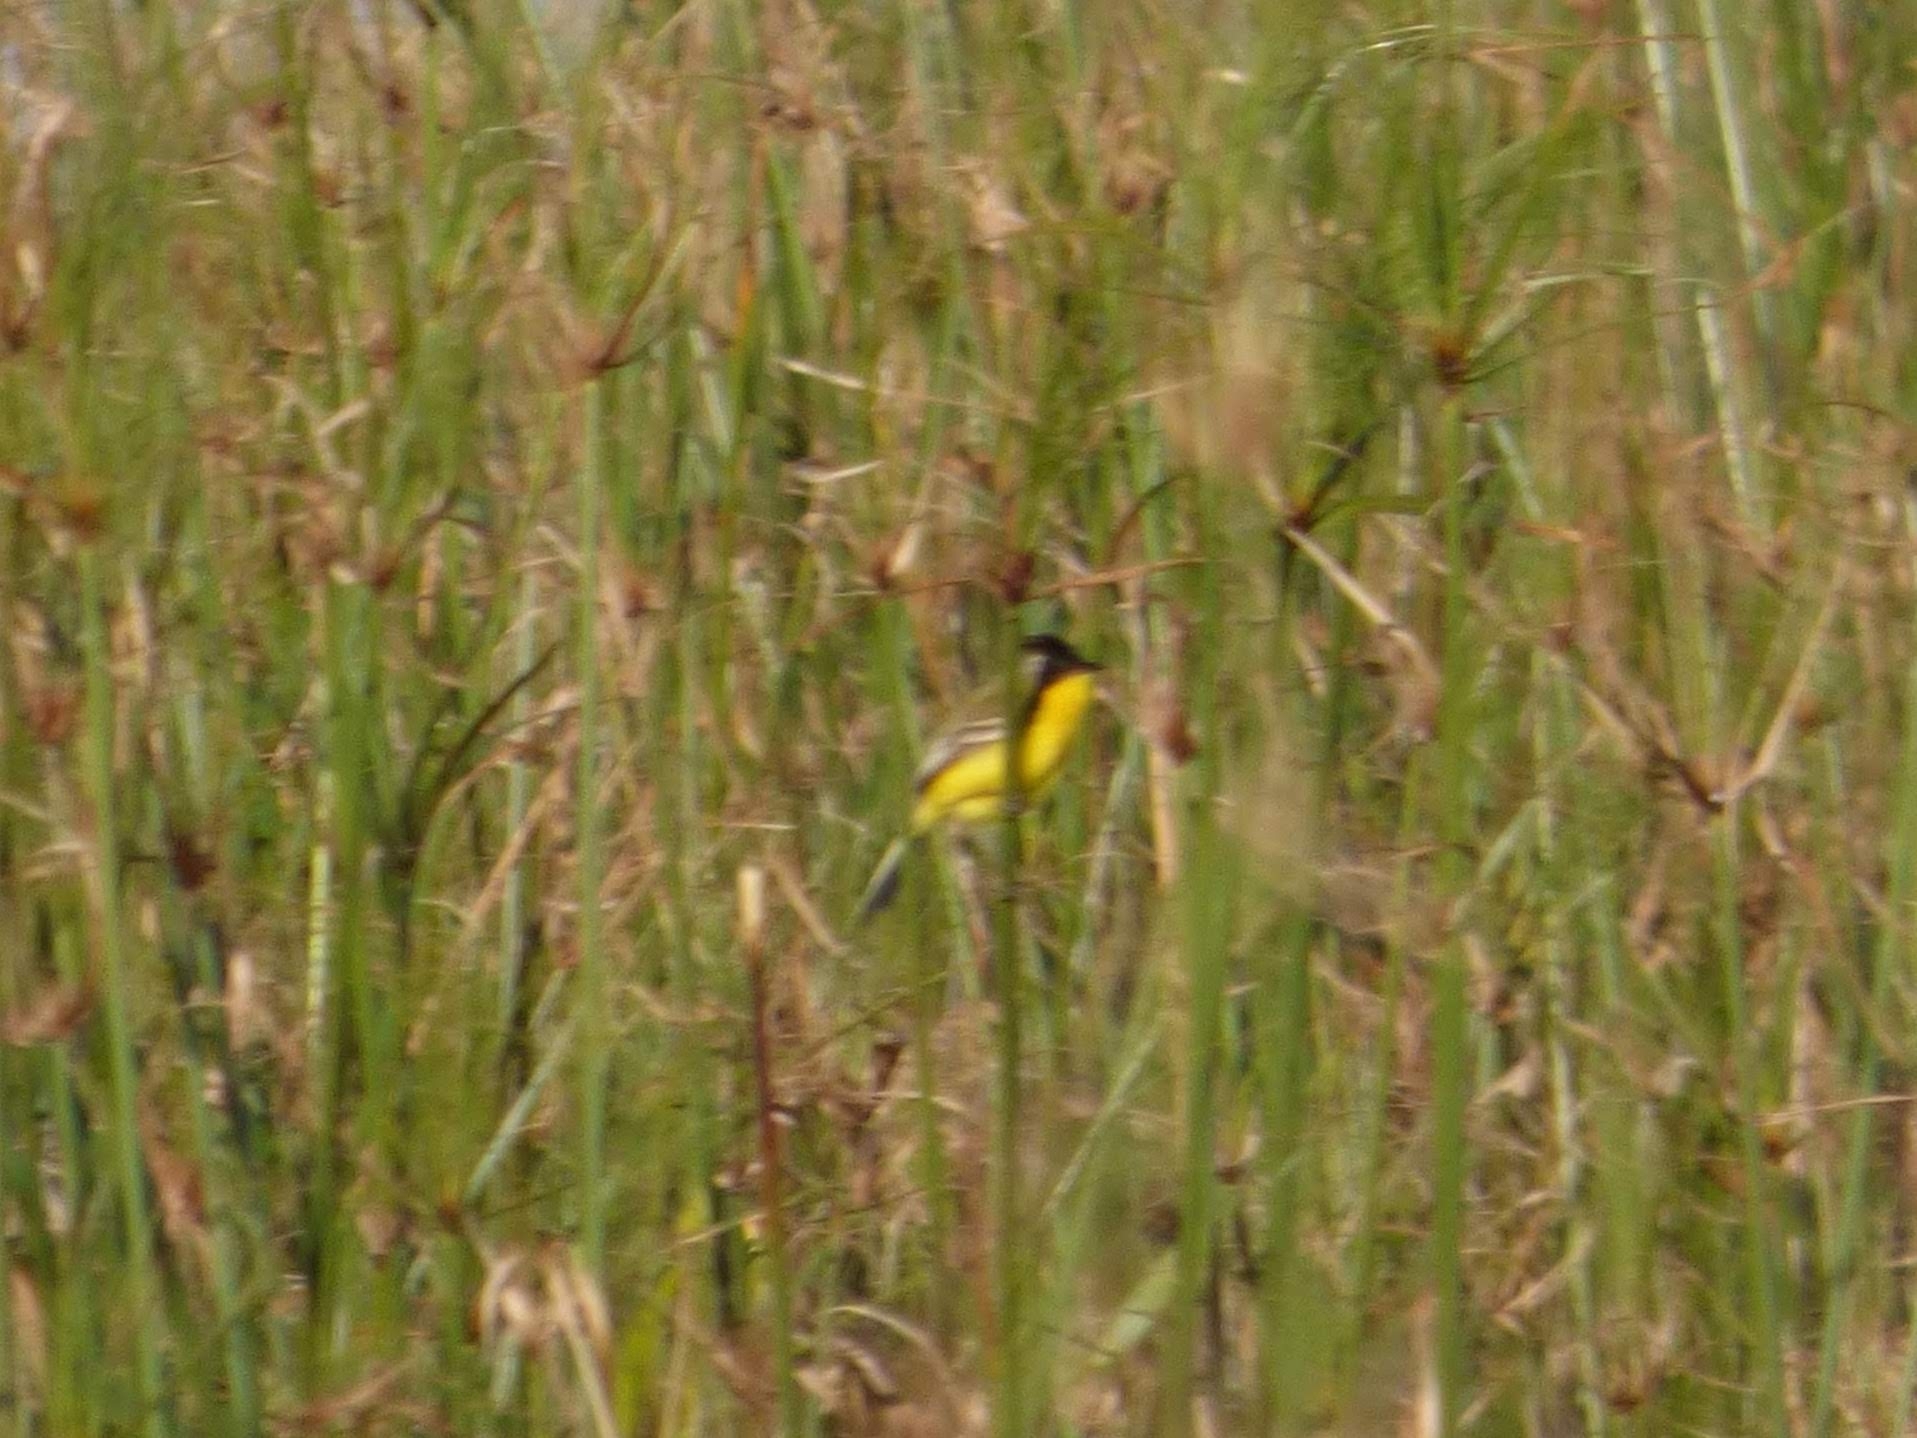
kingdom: Animalia
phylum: Chordata
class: Aves
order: Passeriformes
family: Tyrannidae
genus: Pseudocolopteryx
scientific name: Pseudocolopteryx sclateri
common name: Crested doradito
